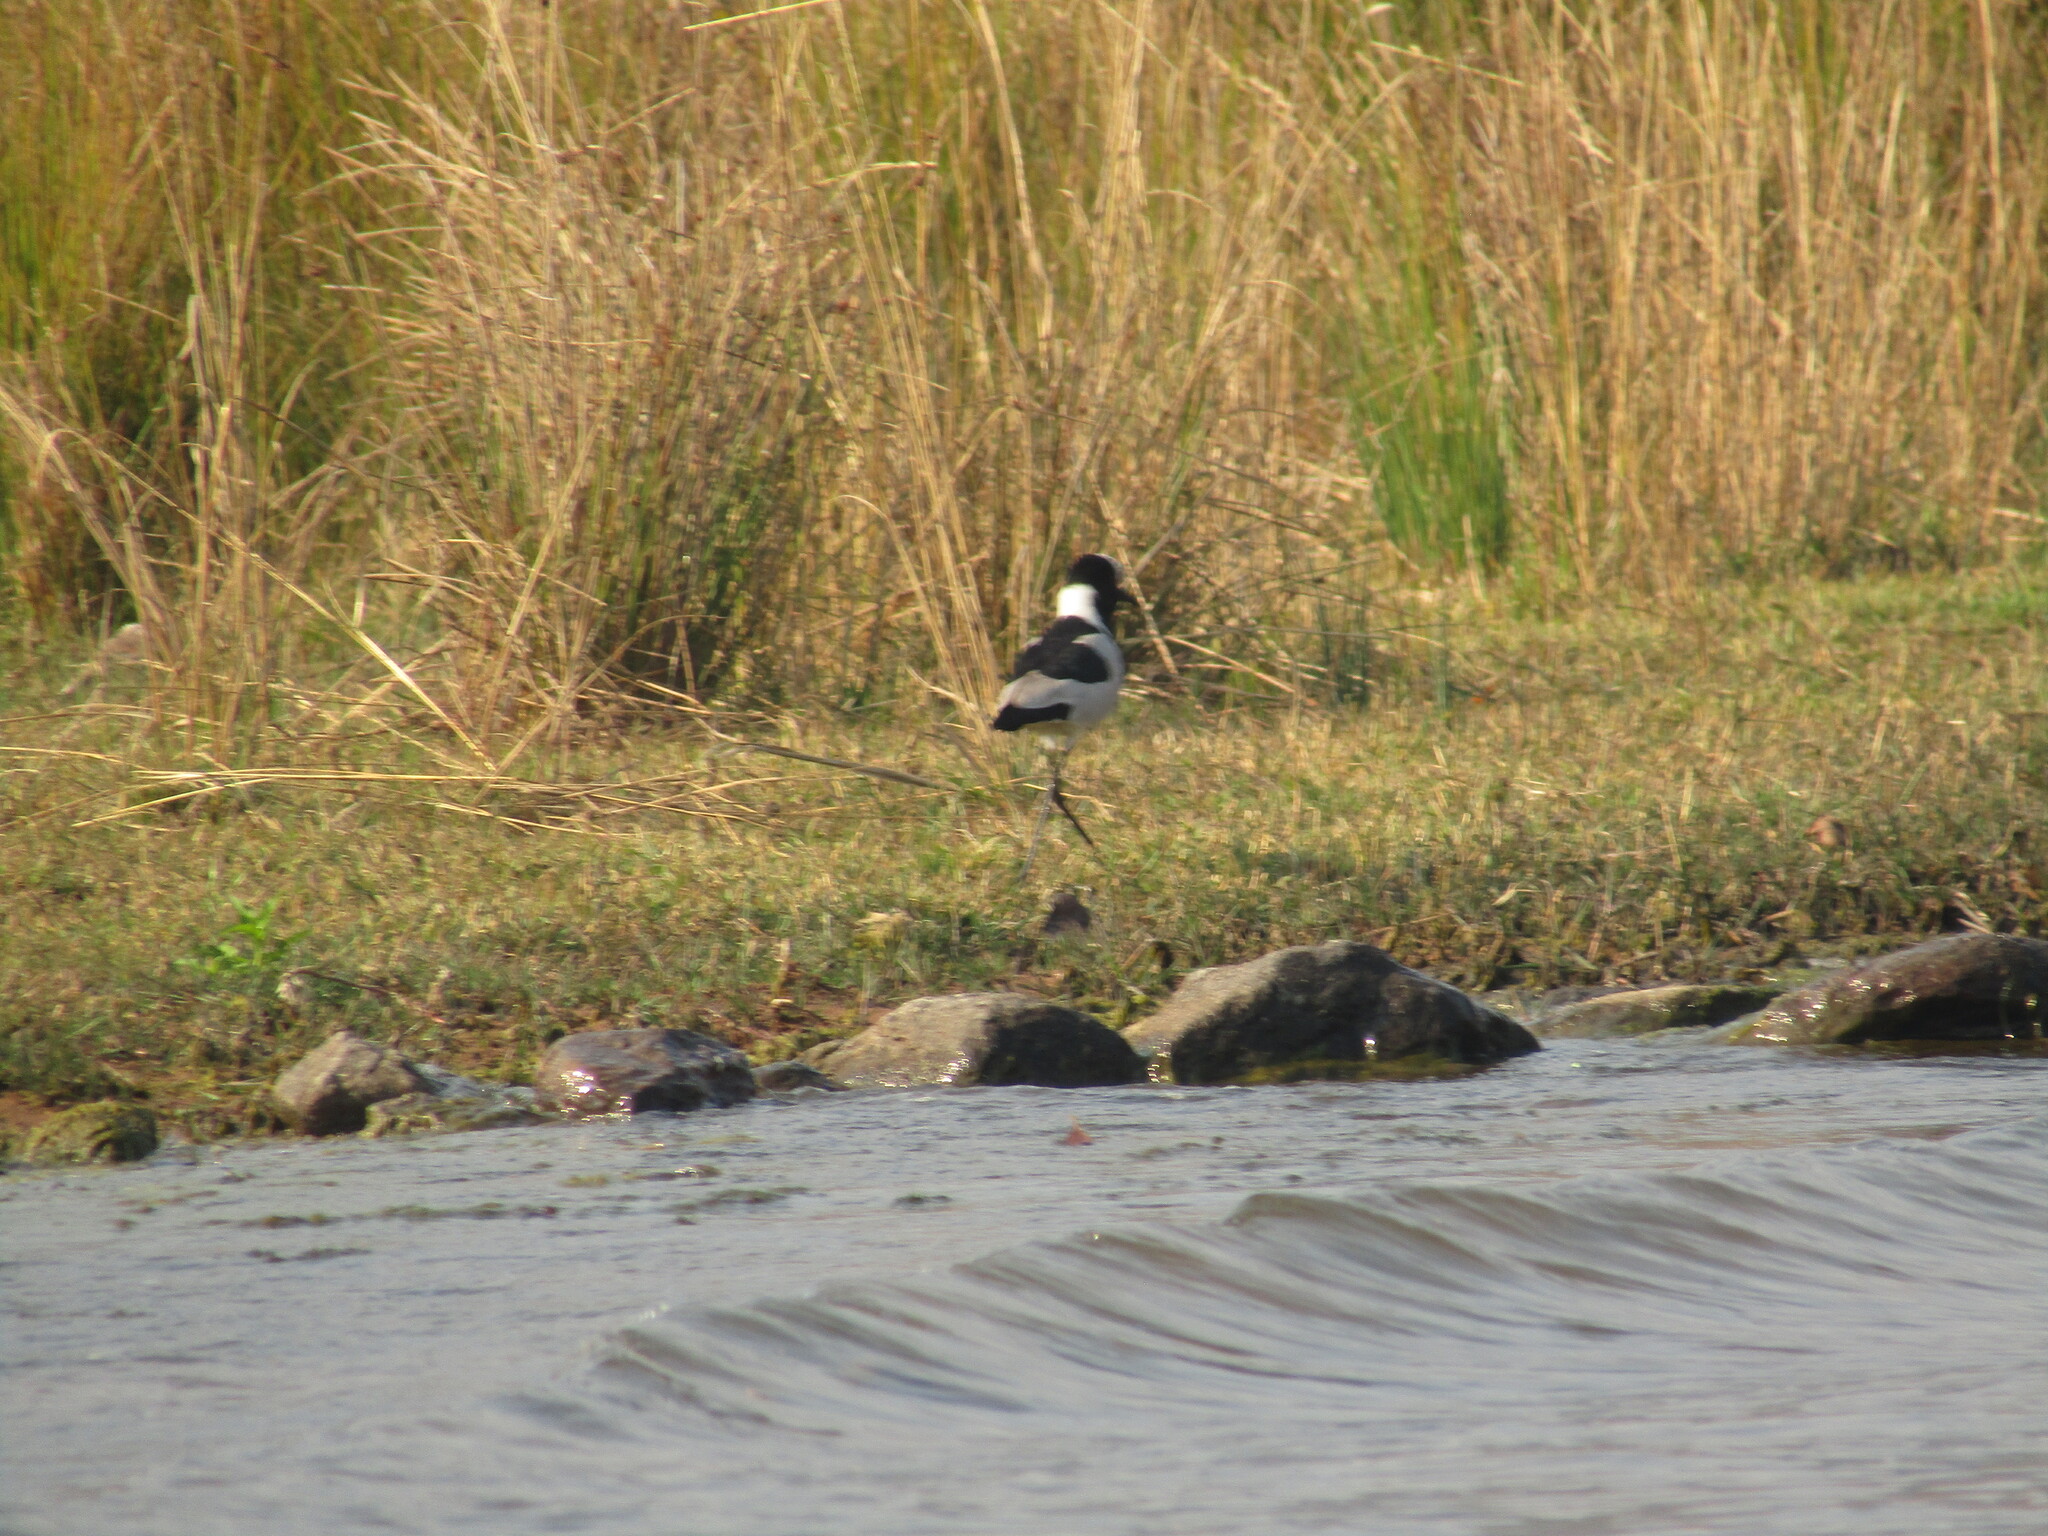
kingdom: Animalia
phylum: Chordata
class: Aves
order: Charadriiformes
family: Charadriidae
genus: Vanellus
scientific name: Vanellus armatus
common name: Blacksmith lapwing
